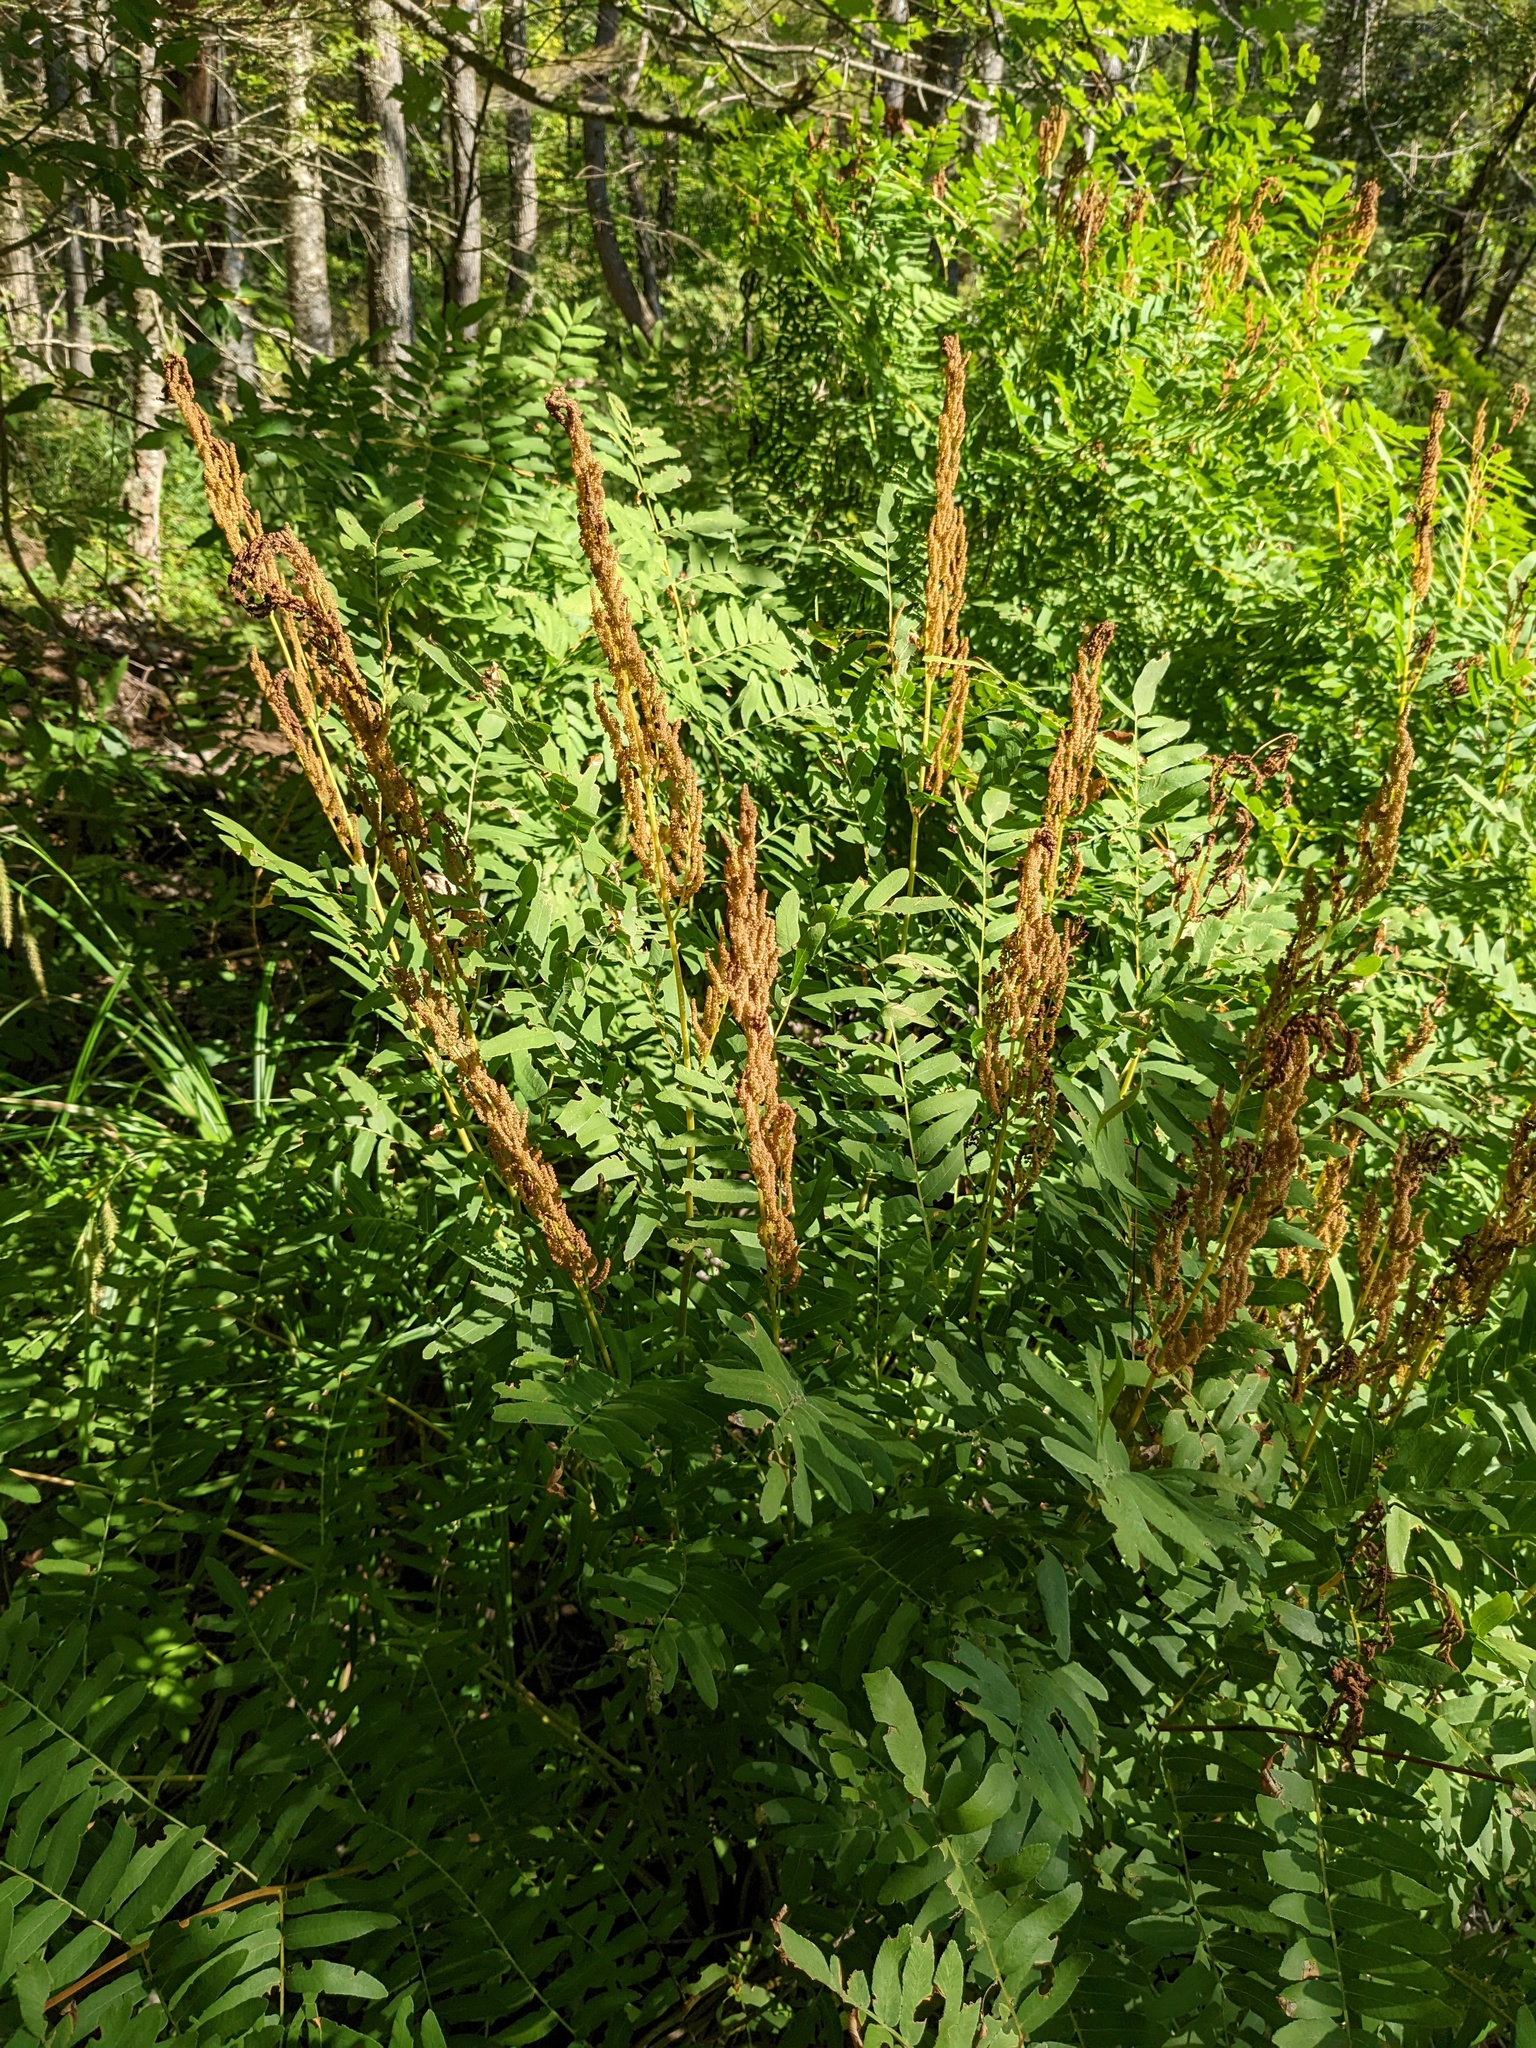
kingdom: Plantae
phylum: Tracheophyta
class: Polypodiopsida
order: Osmundales
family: Osmundaceae
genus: Osmunda
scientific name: Osmunda spectabilis
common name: American royal fern
